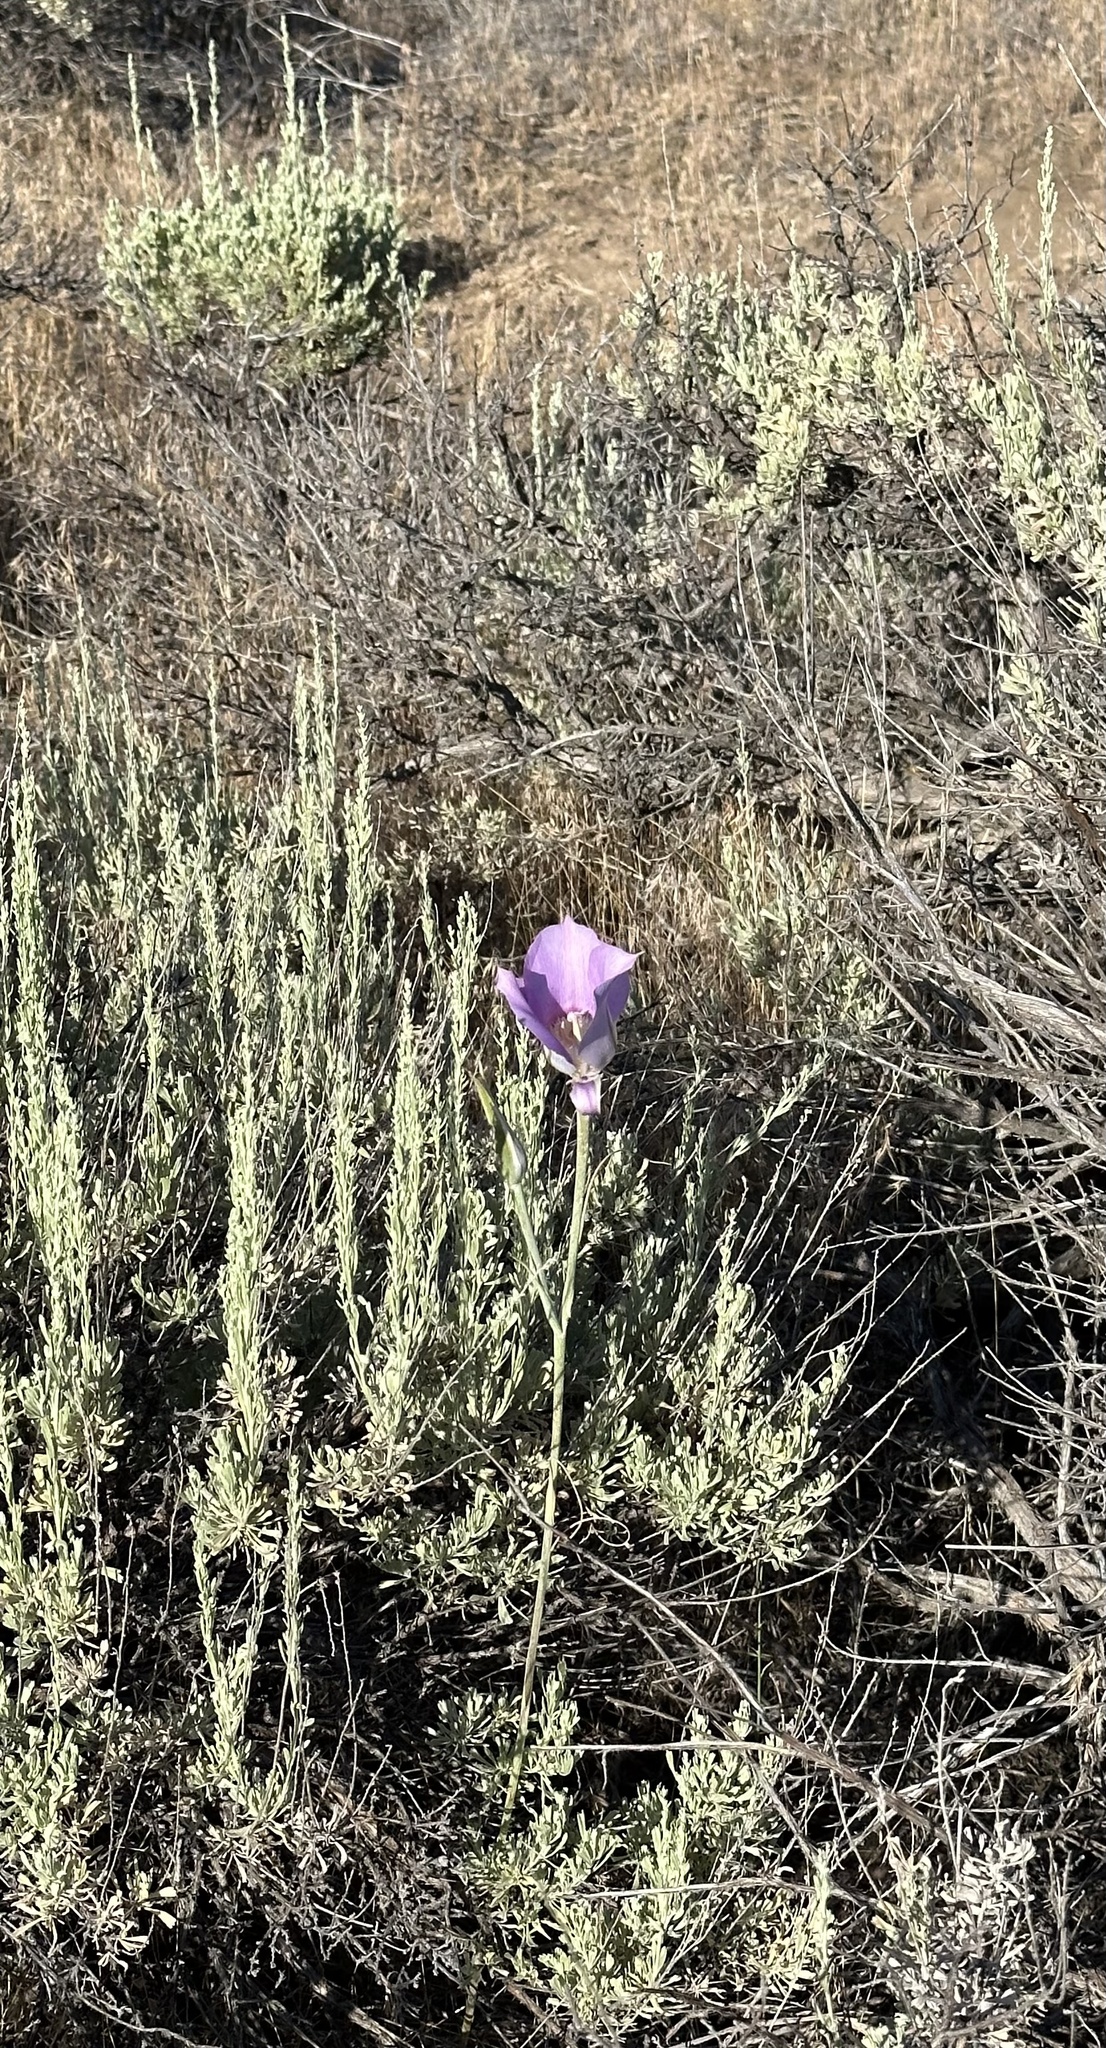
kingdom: Plantae
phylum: Tracheophyta
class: Liliopsida
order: Liliales
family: Liliaceae
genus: Calochortus
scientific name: Calochortus macrocarpus
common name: Green-band mariposa lily
